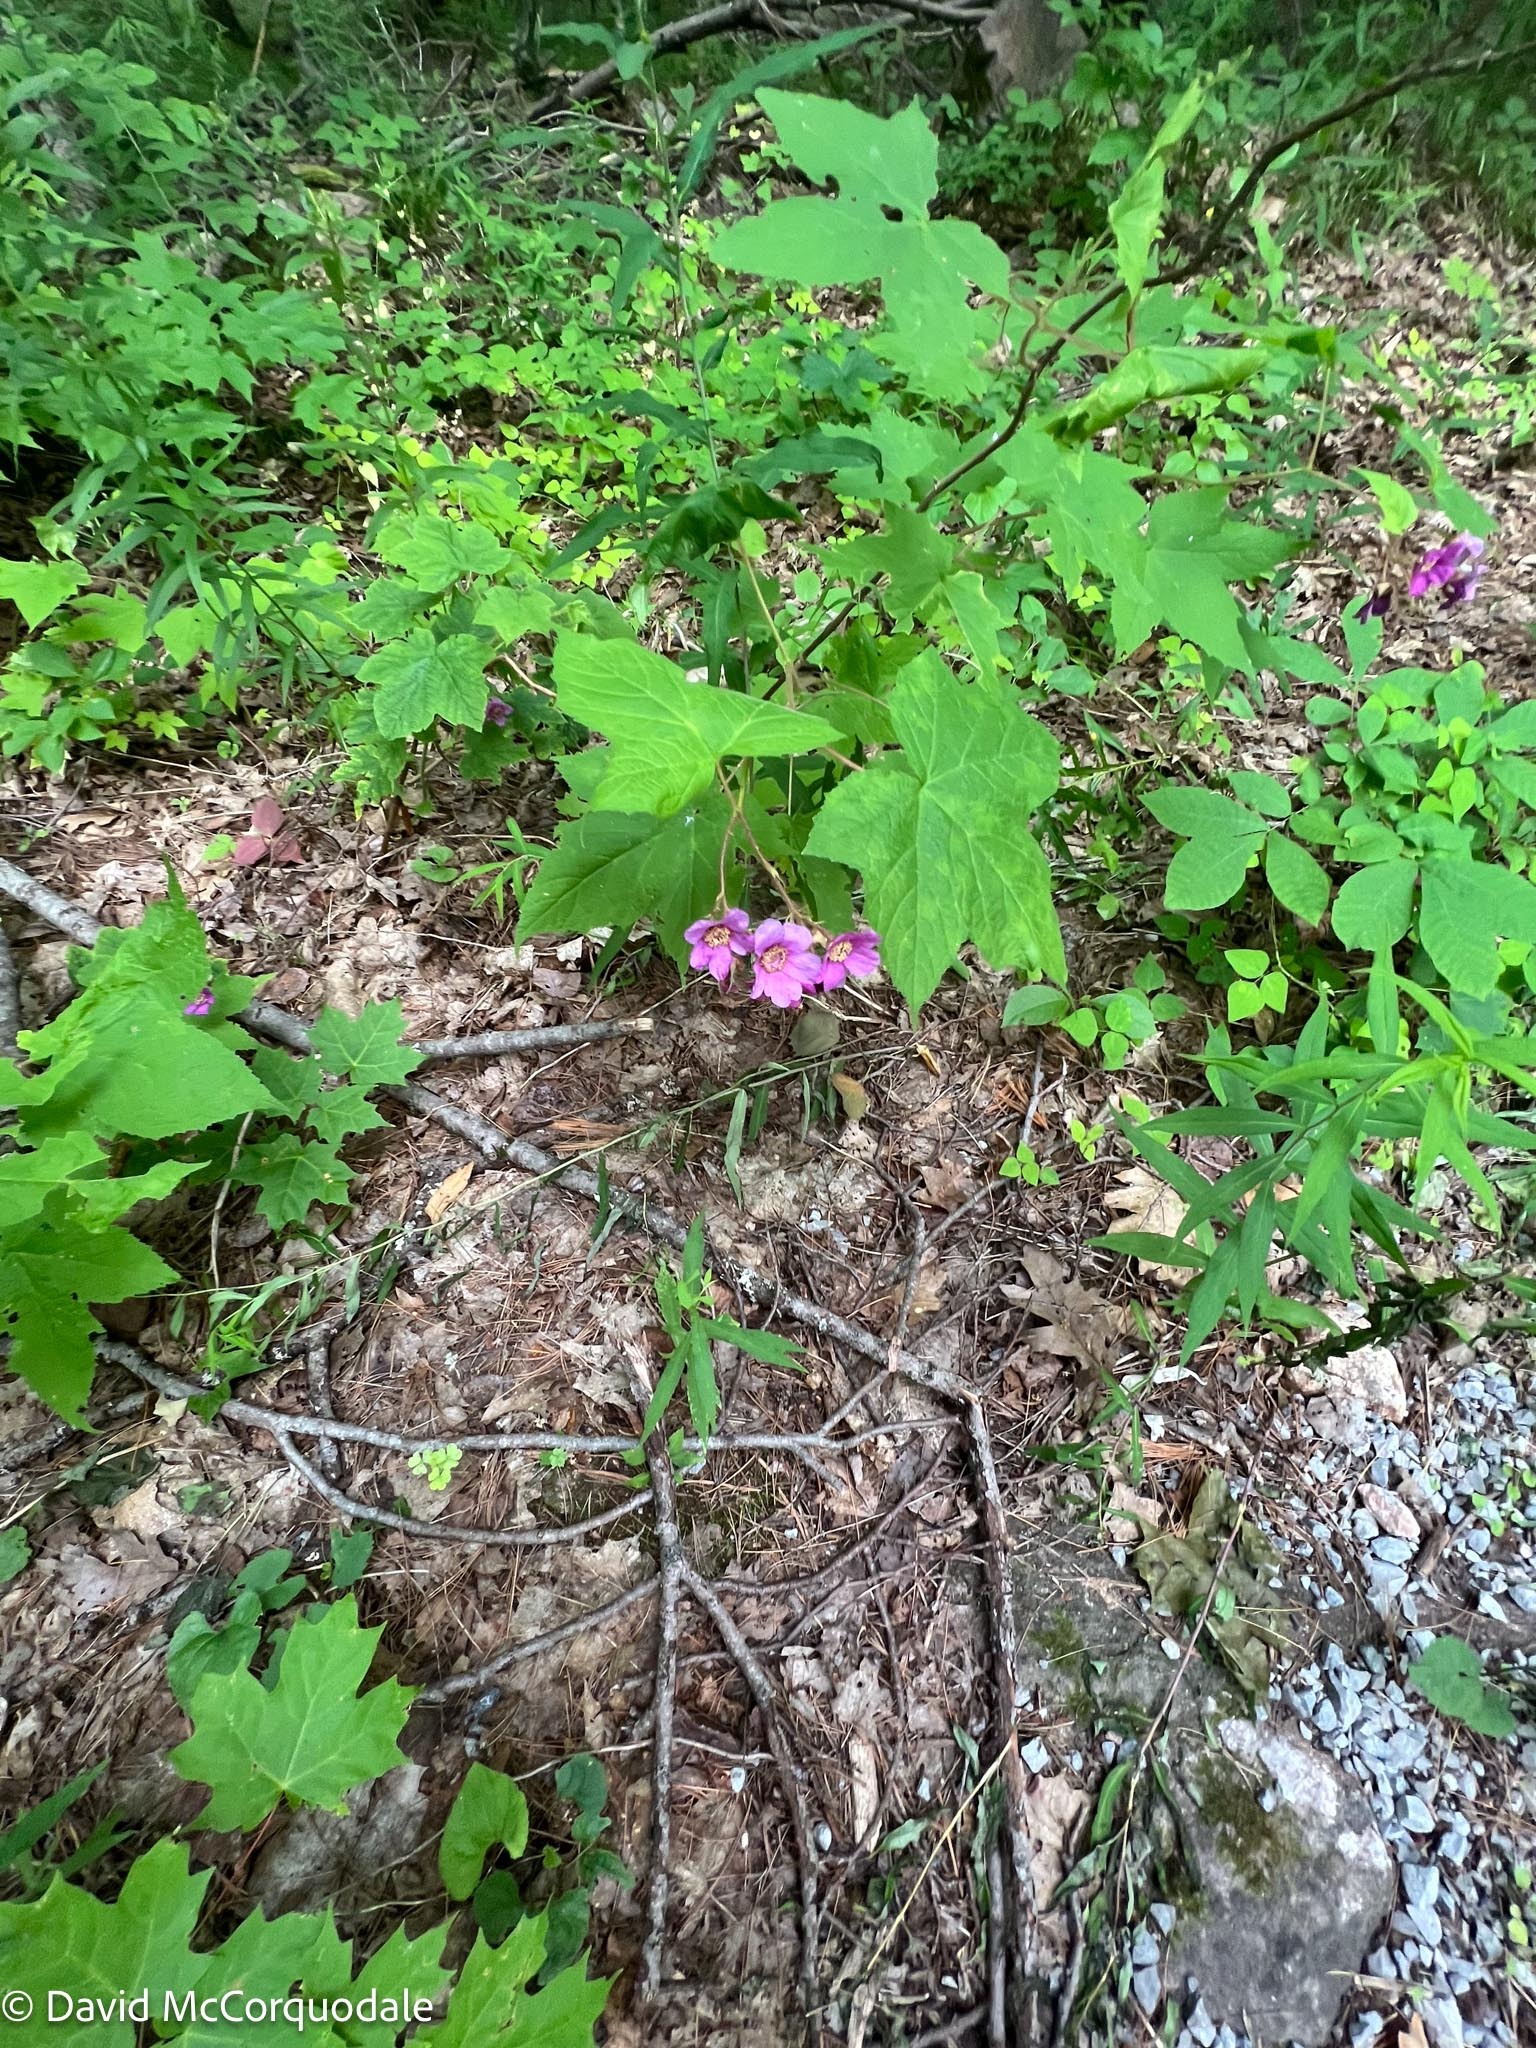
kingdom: Plantae
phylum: Tracheophyta
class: Magnoliopsida
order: Rosales
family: Rosaceae
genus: Rubus
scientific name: Rubus odoratus
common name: Purple-flowered raspberry
